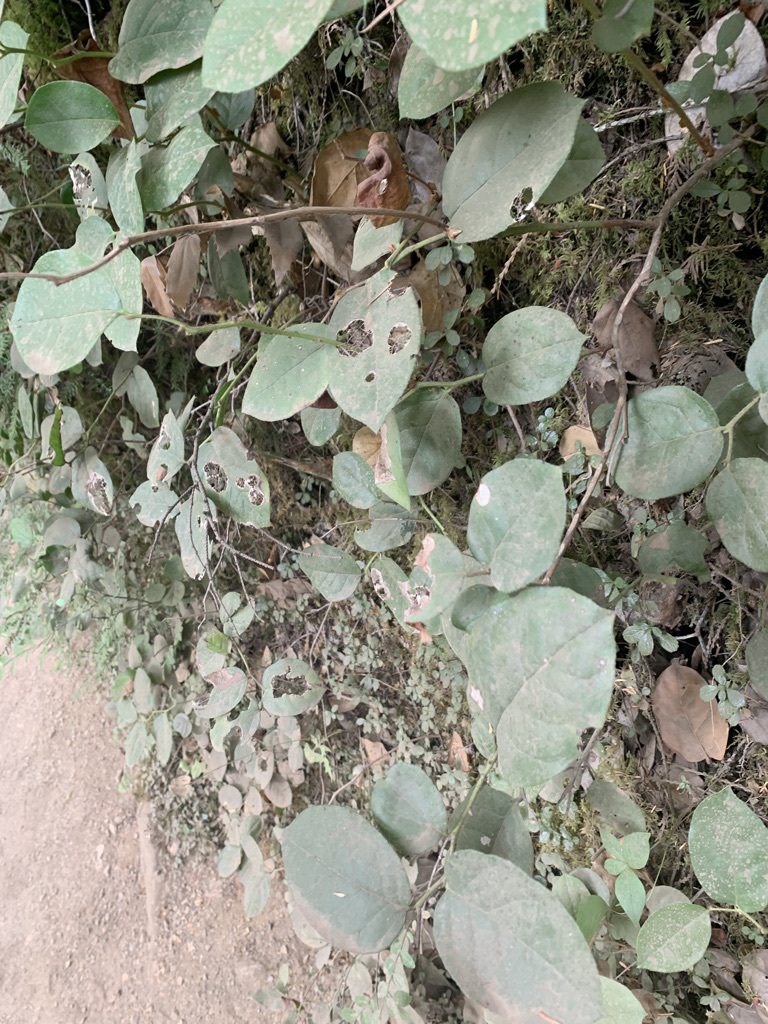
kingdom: Plantae
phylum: Tracheophyta
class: Magnoliopsida
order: Ericales
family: Ericaceae
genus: Gaultheria
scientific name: Gaultheria shallon
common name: Shallon
